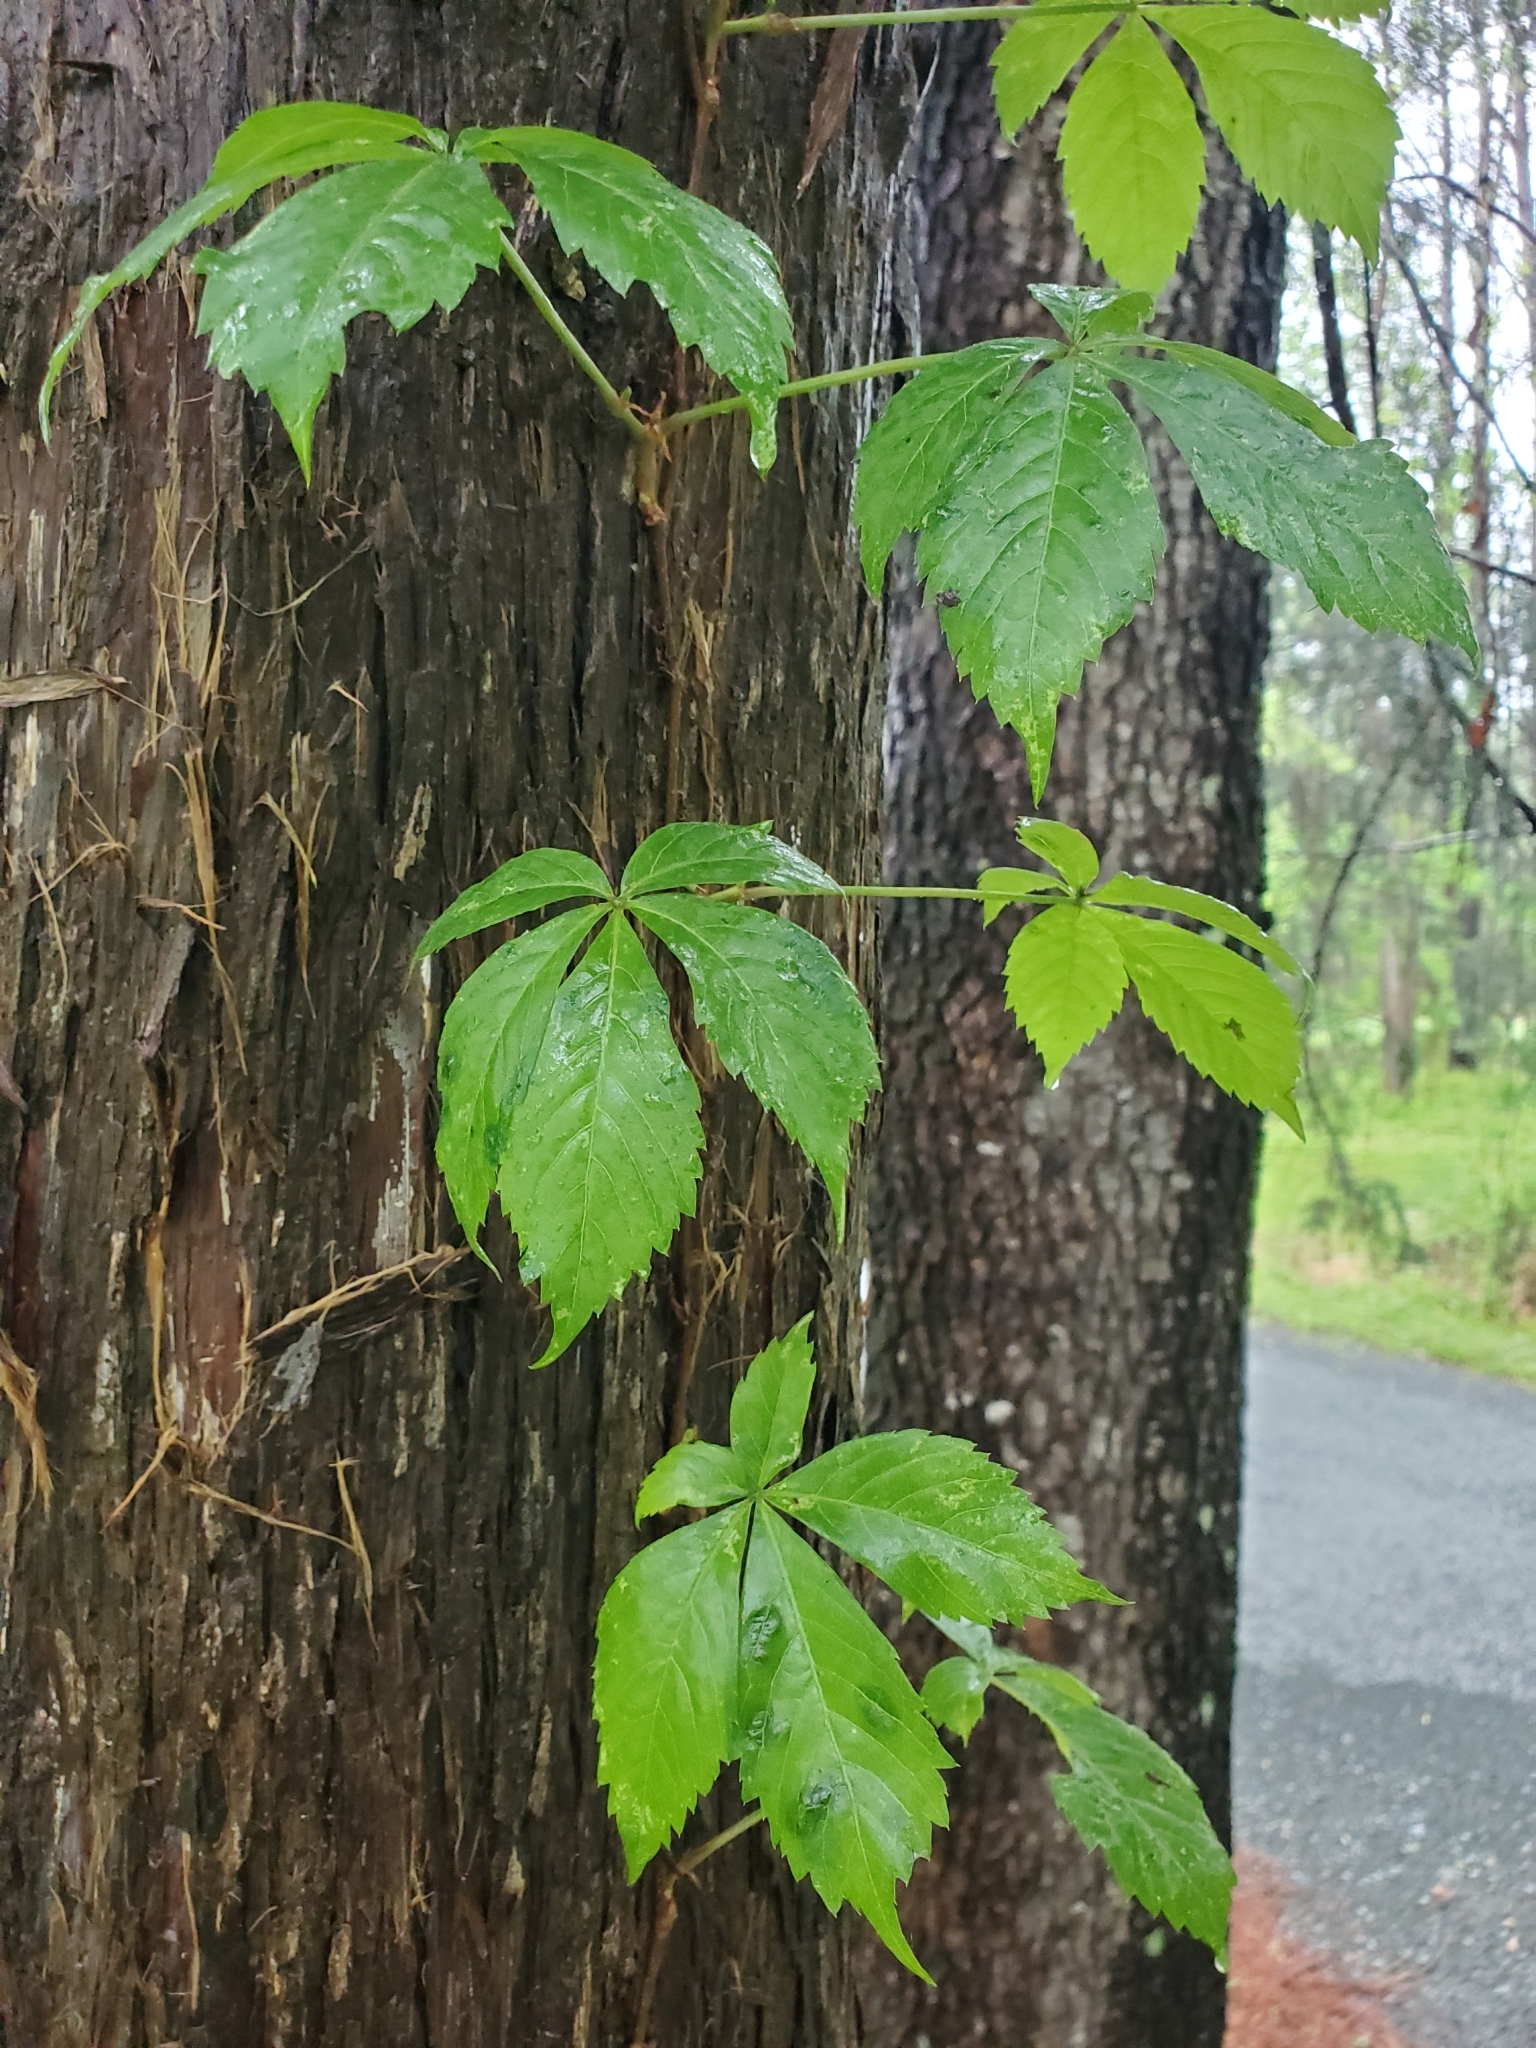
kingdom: Plantae
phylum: Tracheophyta
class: Magnoliopsida
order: Vitales
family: Vitaceae
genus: Parthenocissus
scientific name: Parthenocissus quinquefolia
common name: Virginia-creeper
